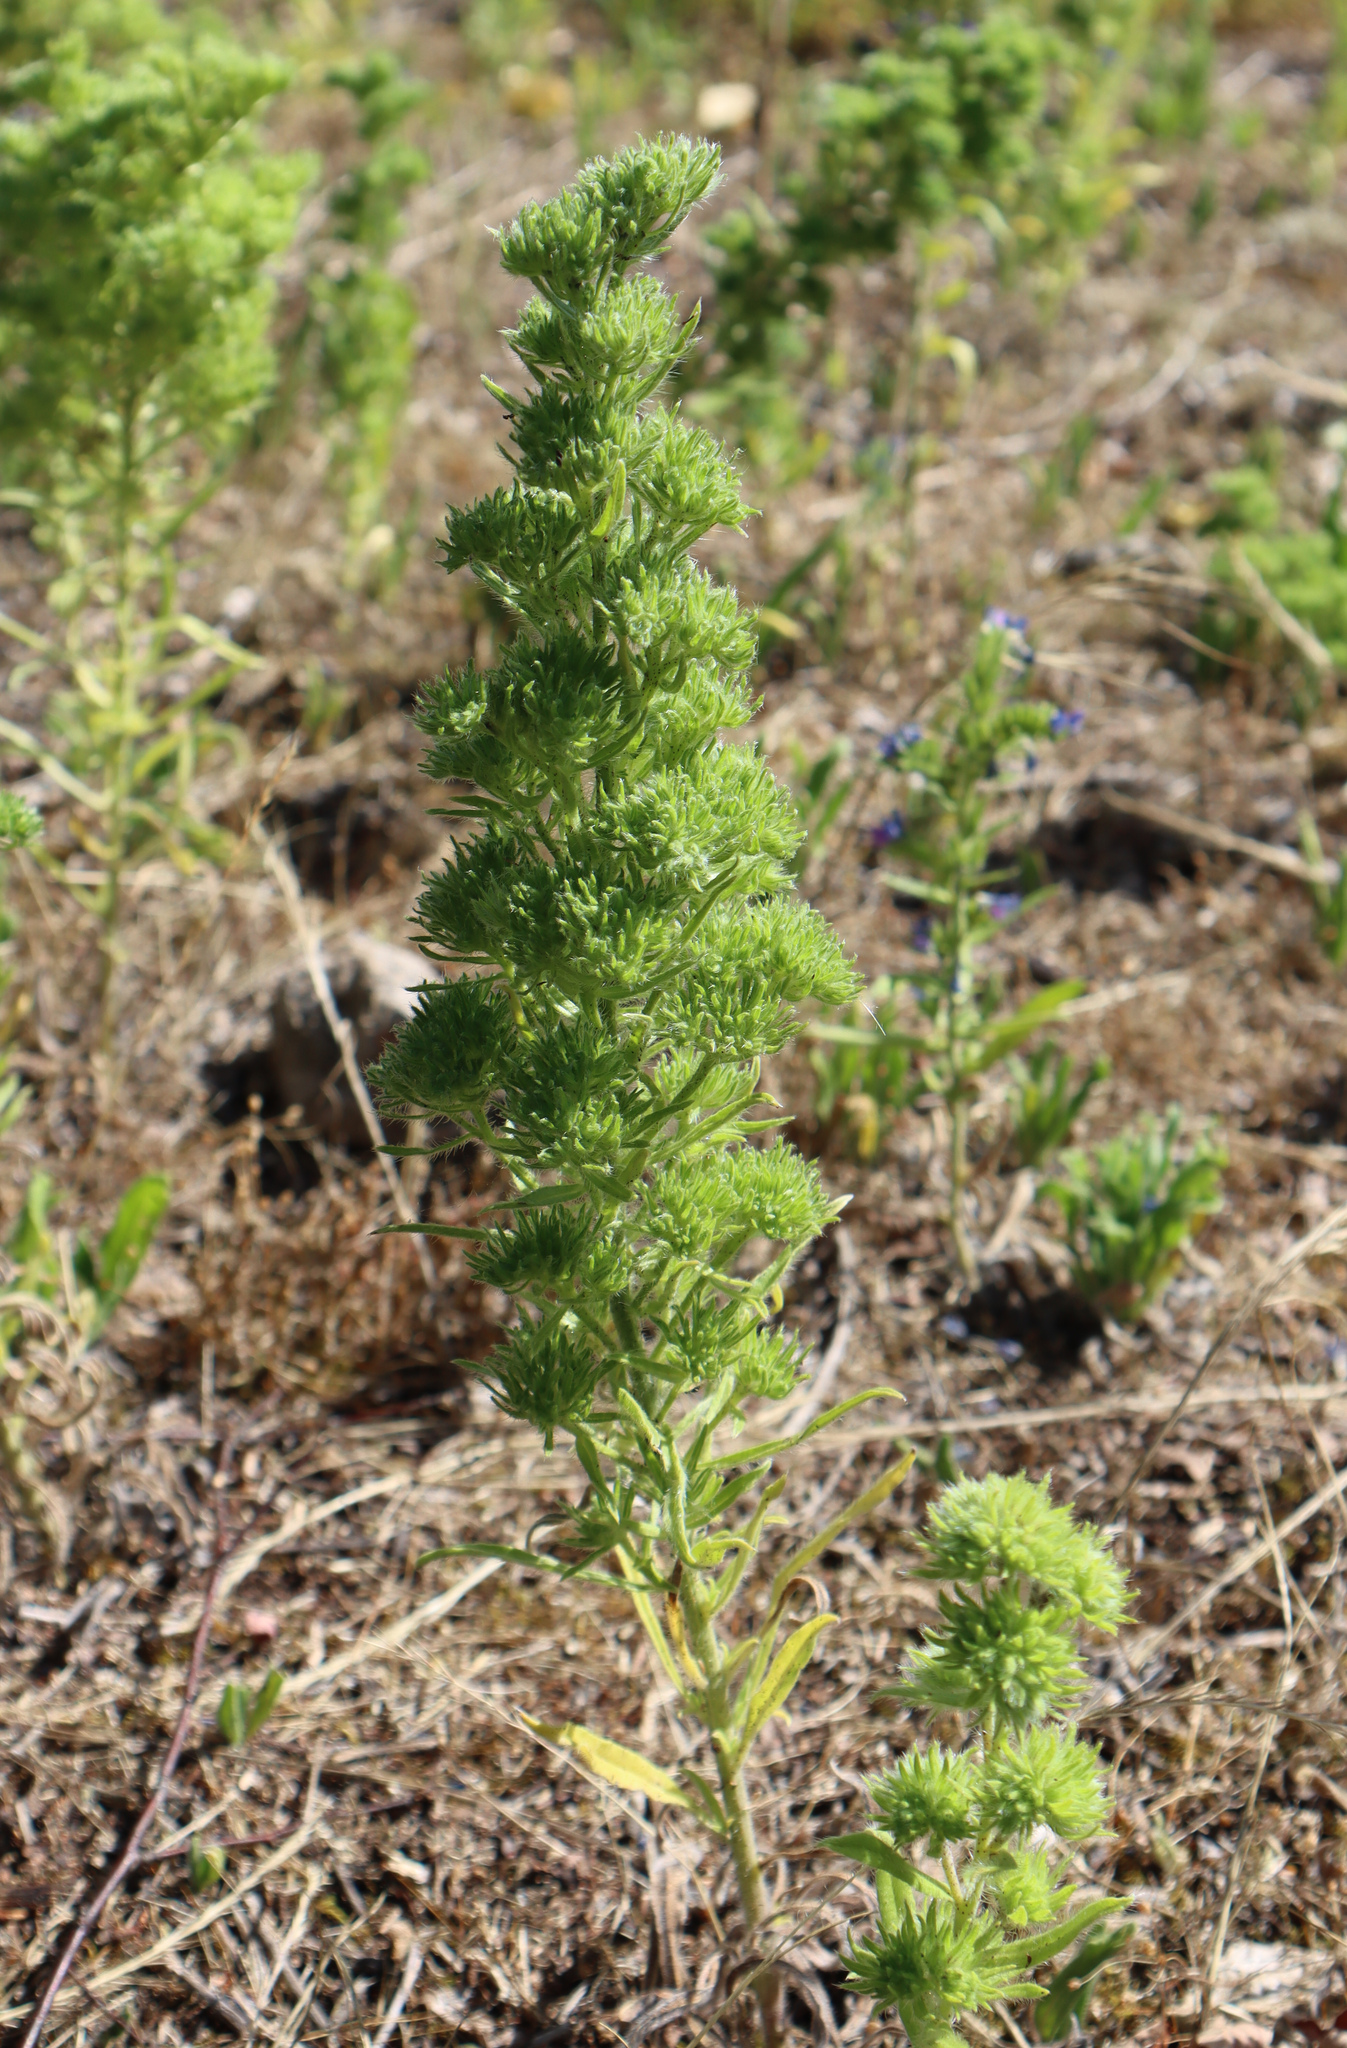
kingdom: Animalia
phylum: Arthropoda
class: Arachnida
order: Trombidiformes
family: Eriophyidae
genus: Aceria
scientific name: Aceria echii
